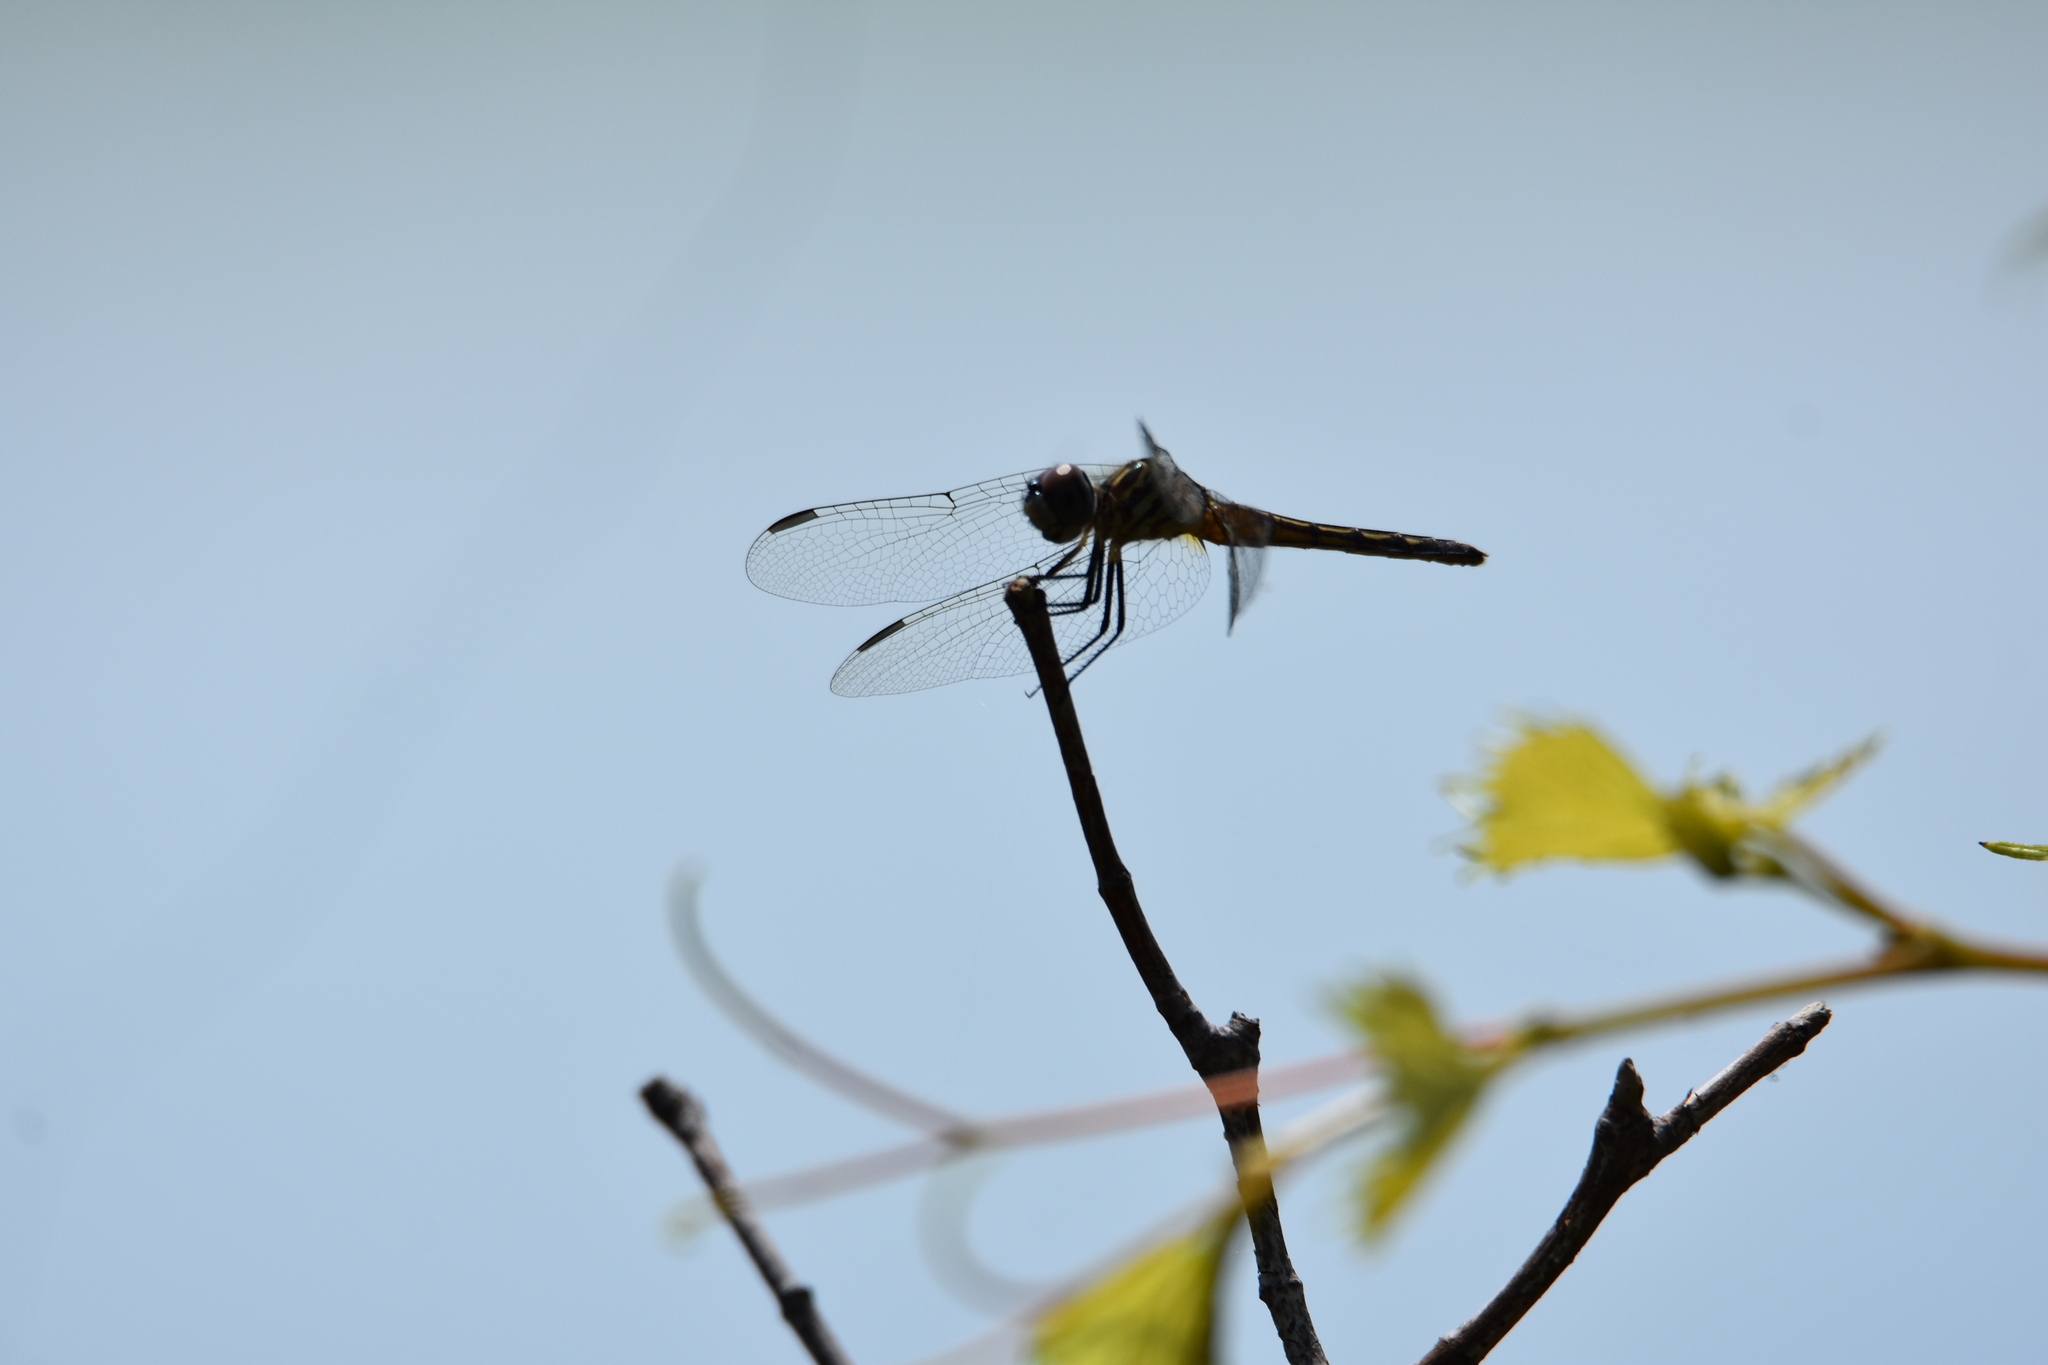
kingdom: Animalia
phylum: Arthropoda
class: Insecta
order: Odonata
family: Libellulidae
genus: Pachydiplax
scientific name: Pachydiplax longipennis
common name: Blue dasher
